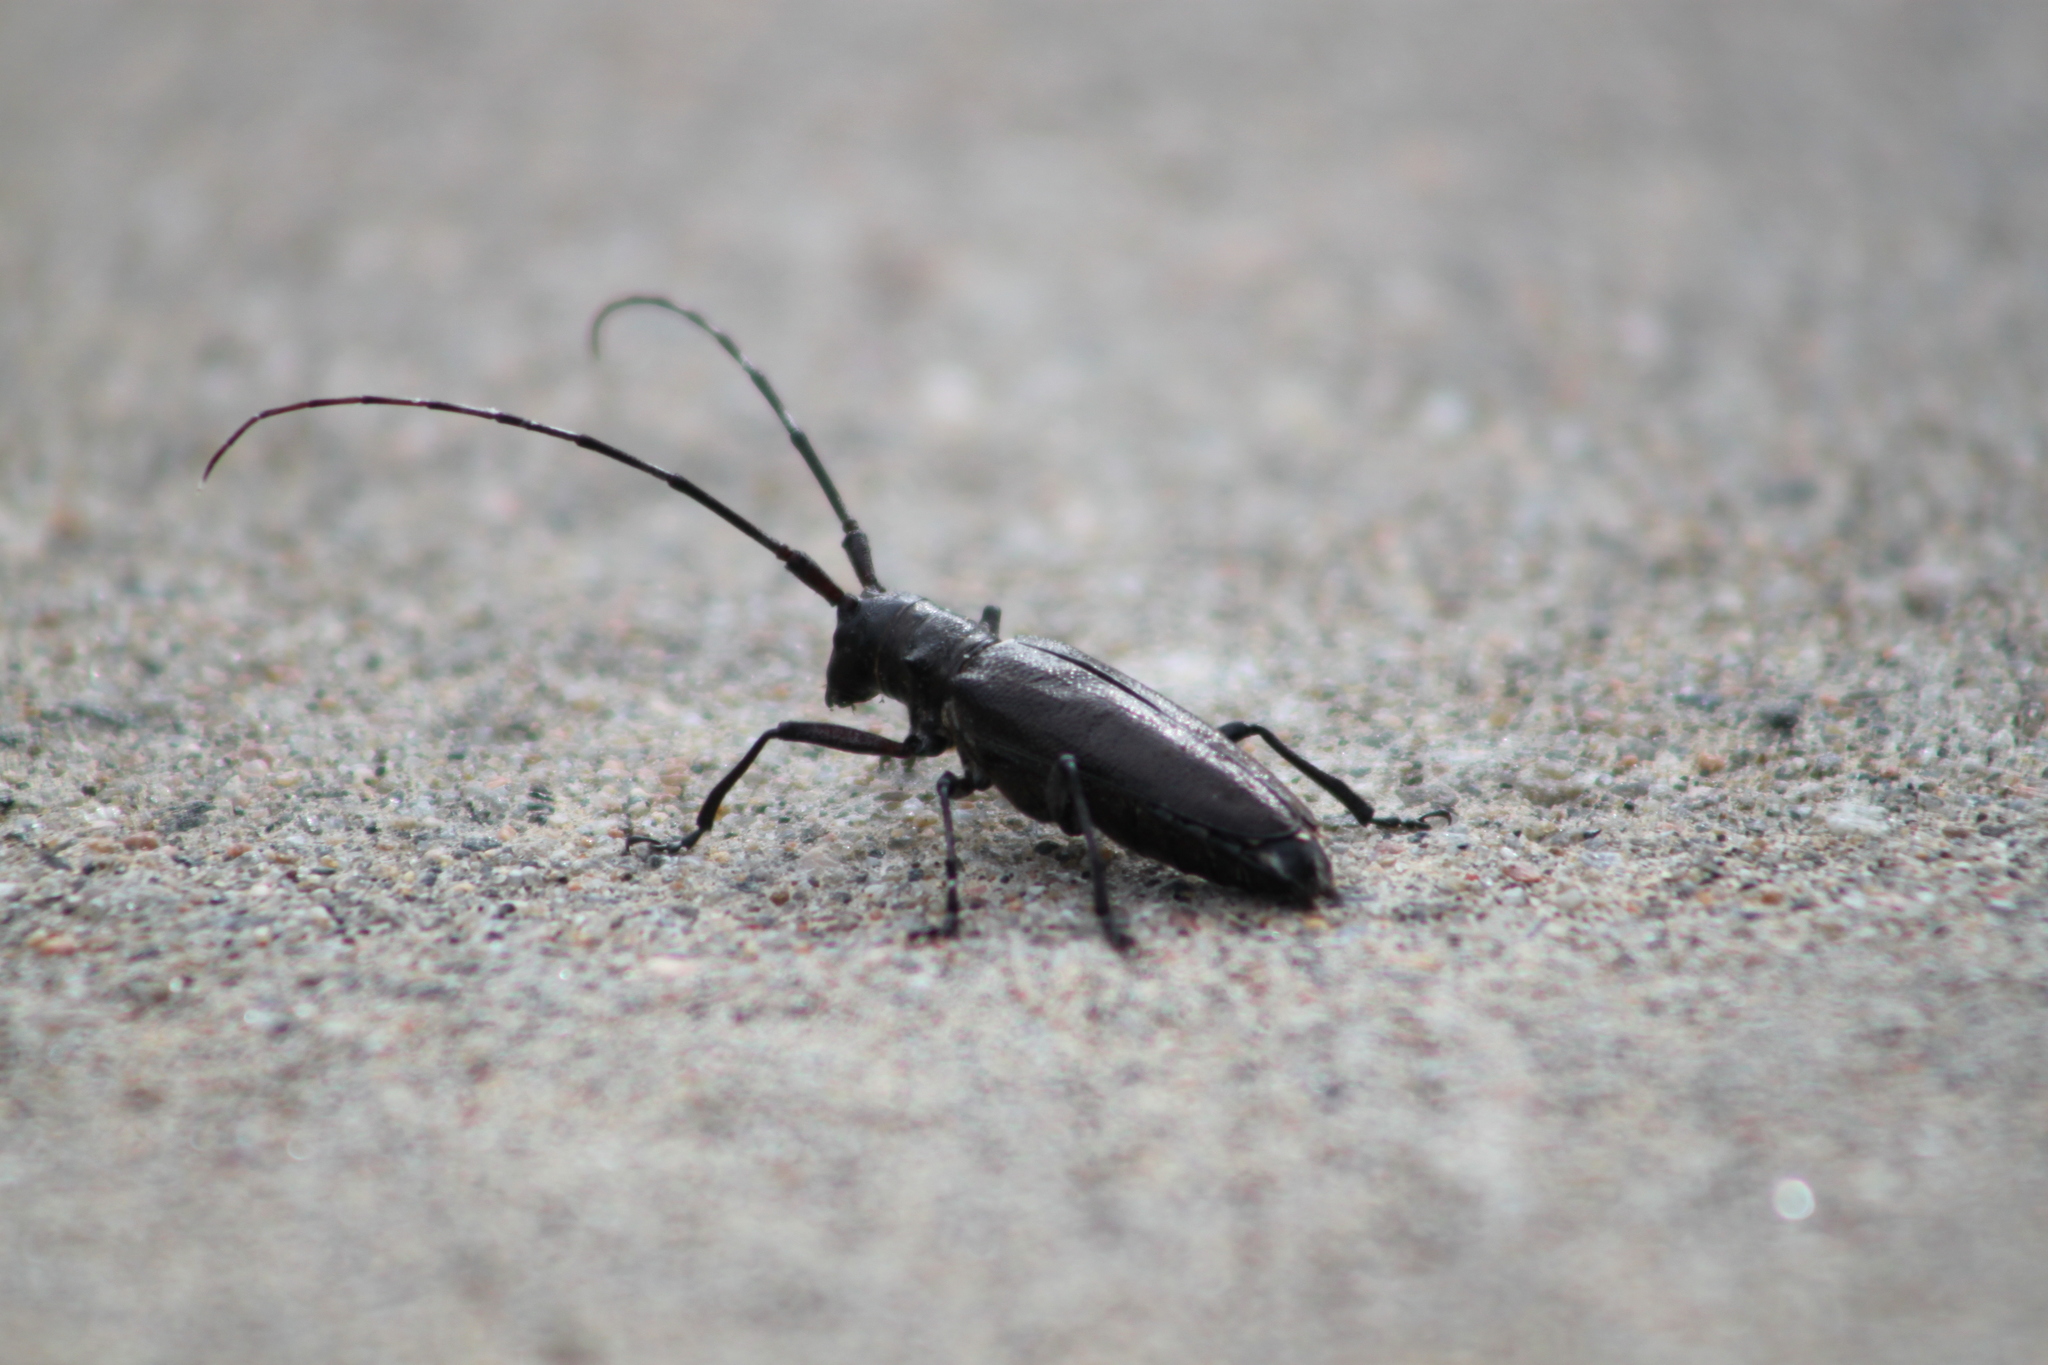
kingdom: Animalia
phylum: Arthropoda
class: Insecta
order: Coleoptera
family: Cerambycidae
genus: Monochamus
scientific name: Monochamus scutellatus
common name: White-spotted sawyer beetle
